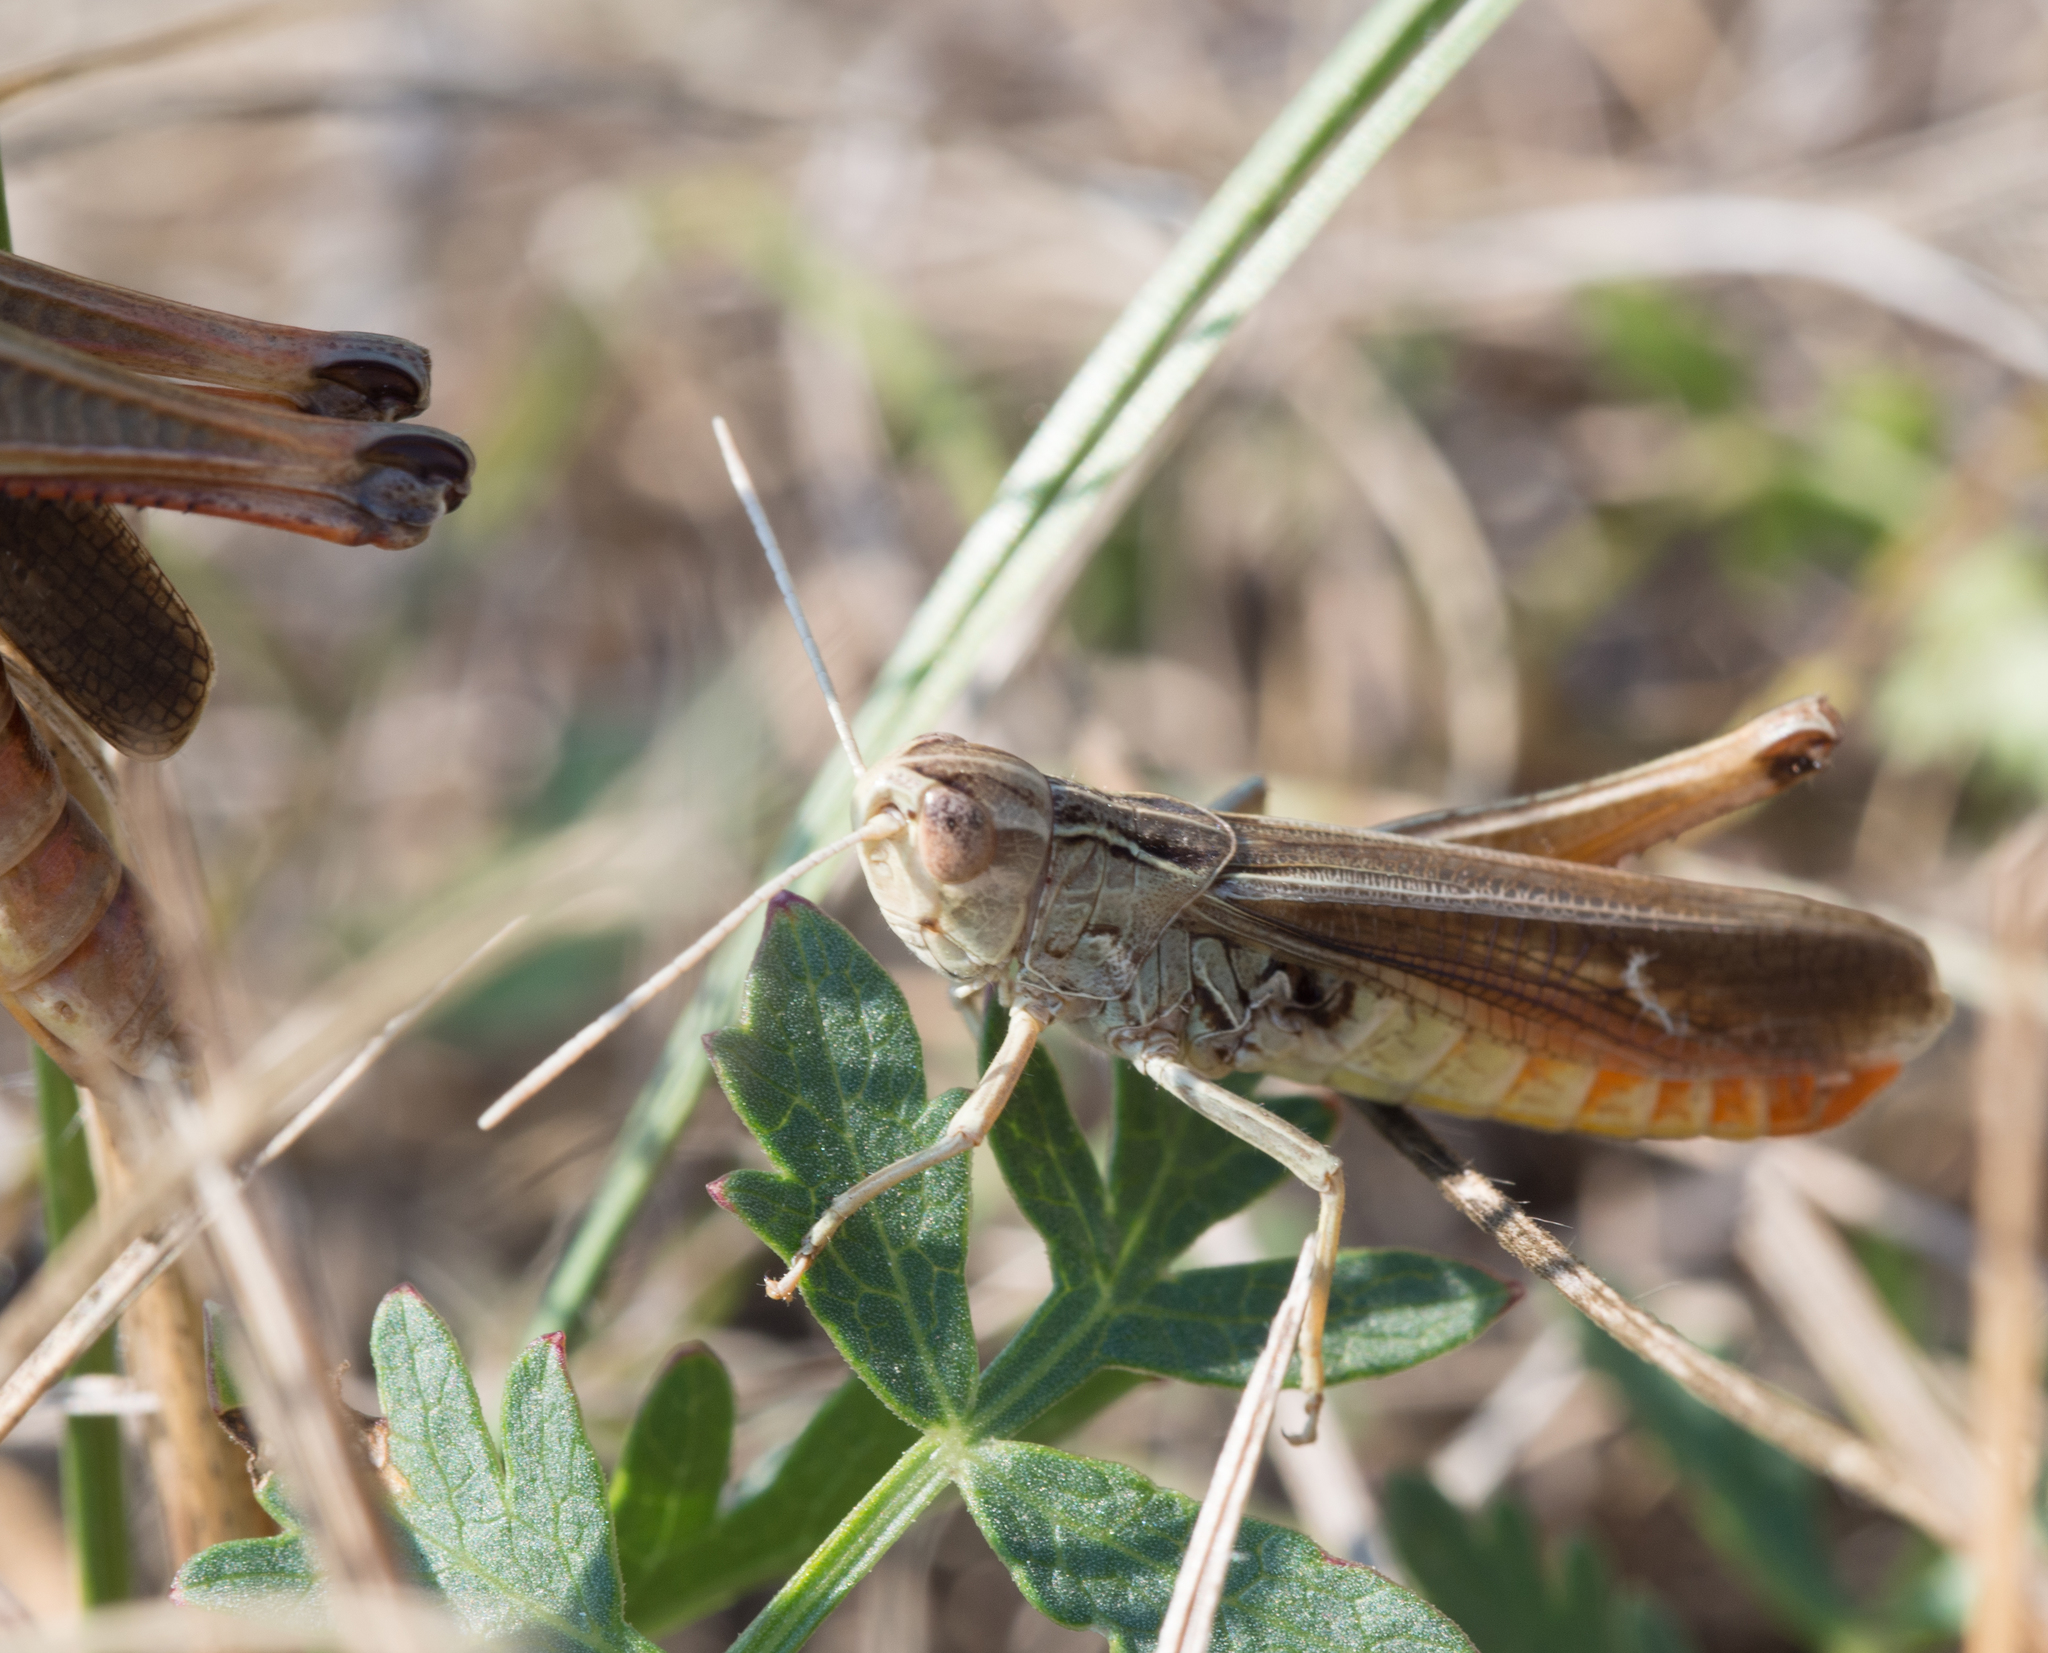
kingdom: Animalia
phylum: Arthropoda
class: Insecta
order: Orthoptera
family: Acrididae
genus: Stenobothrus
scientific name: Stenobothrus lineatus
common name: Stripe-winged grasshopper
